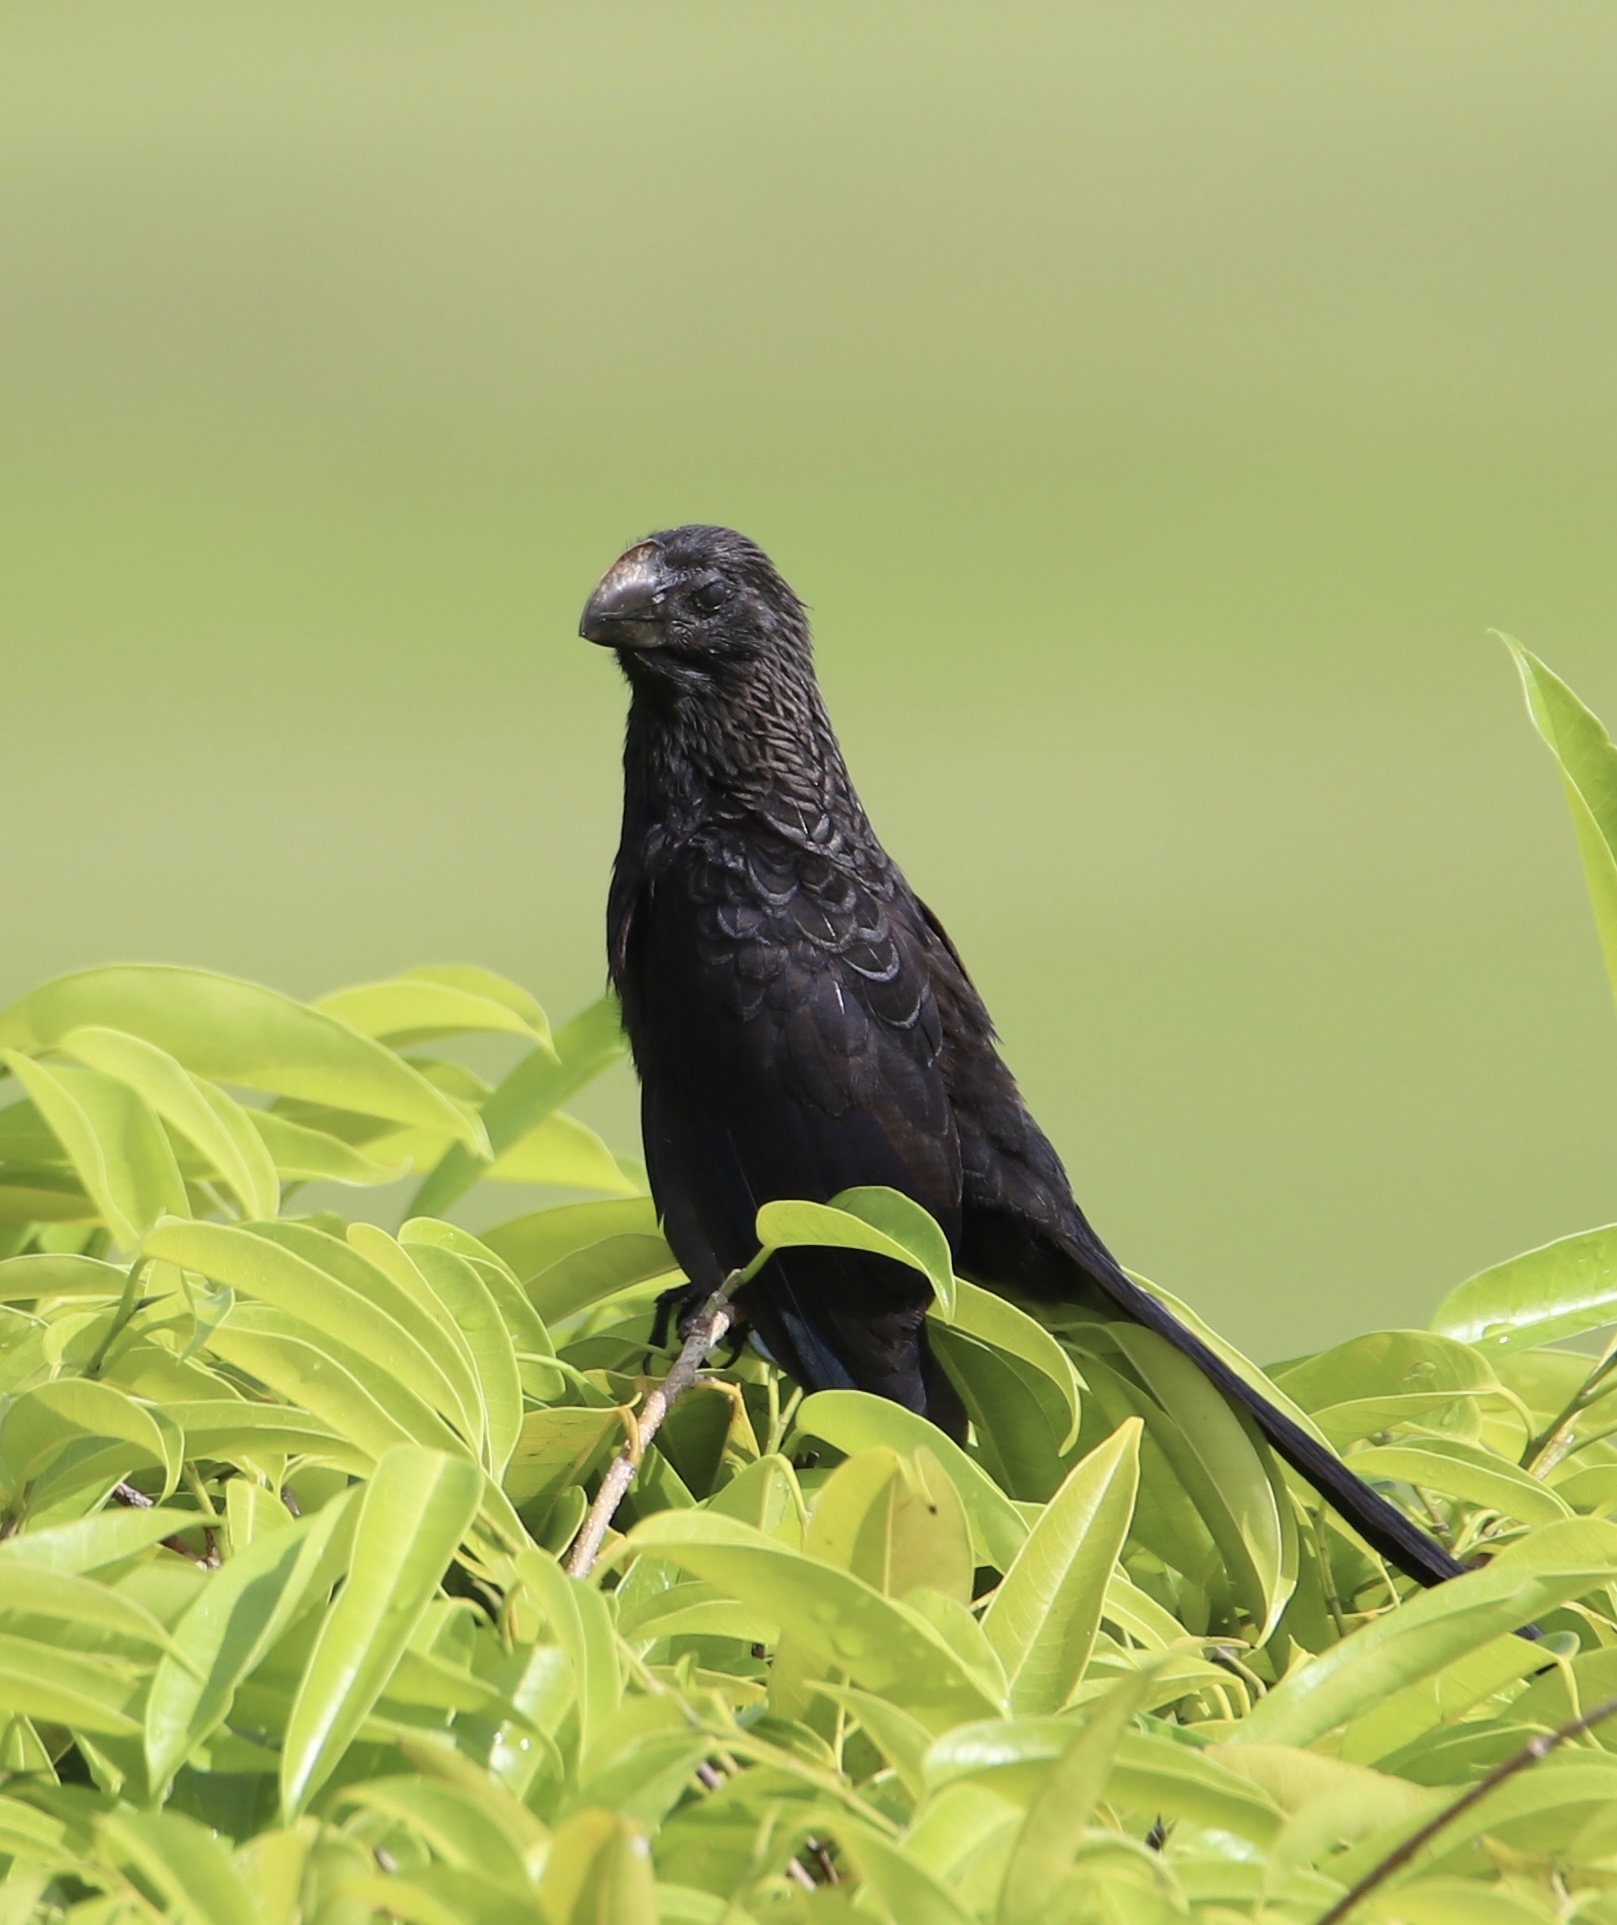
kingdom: Animalia
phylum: Chordata
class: Aves
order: Cuculiformes
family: Cuculidae
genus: Crotophaga
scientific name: Crotophaga ani
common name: Smooth-billed ani
